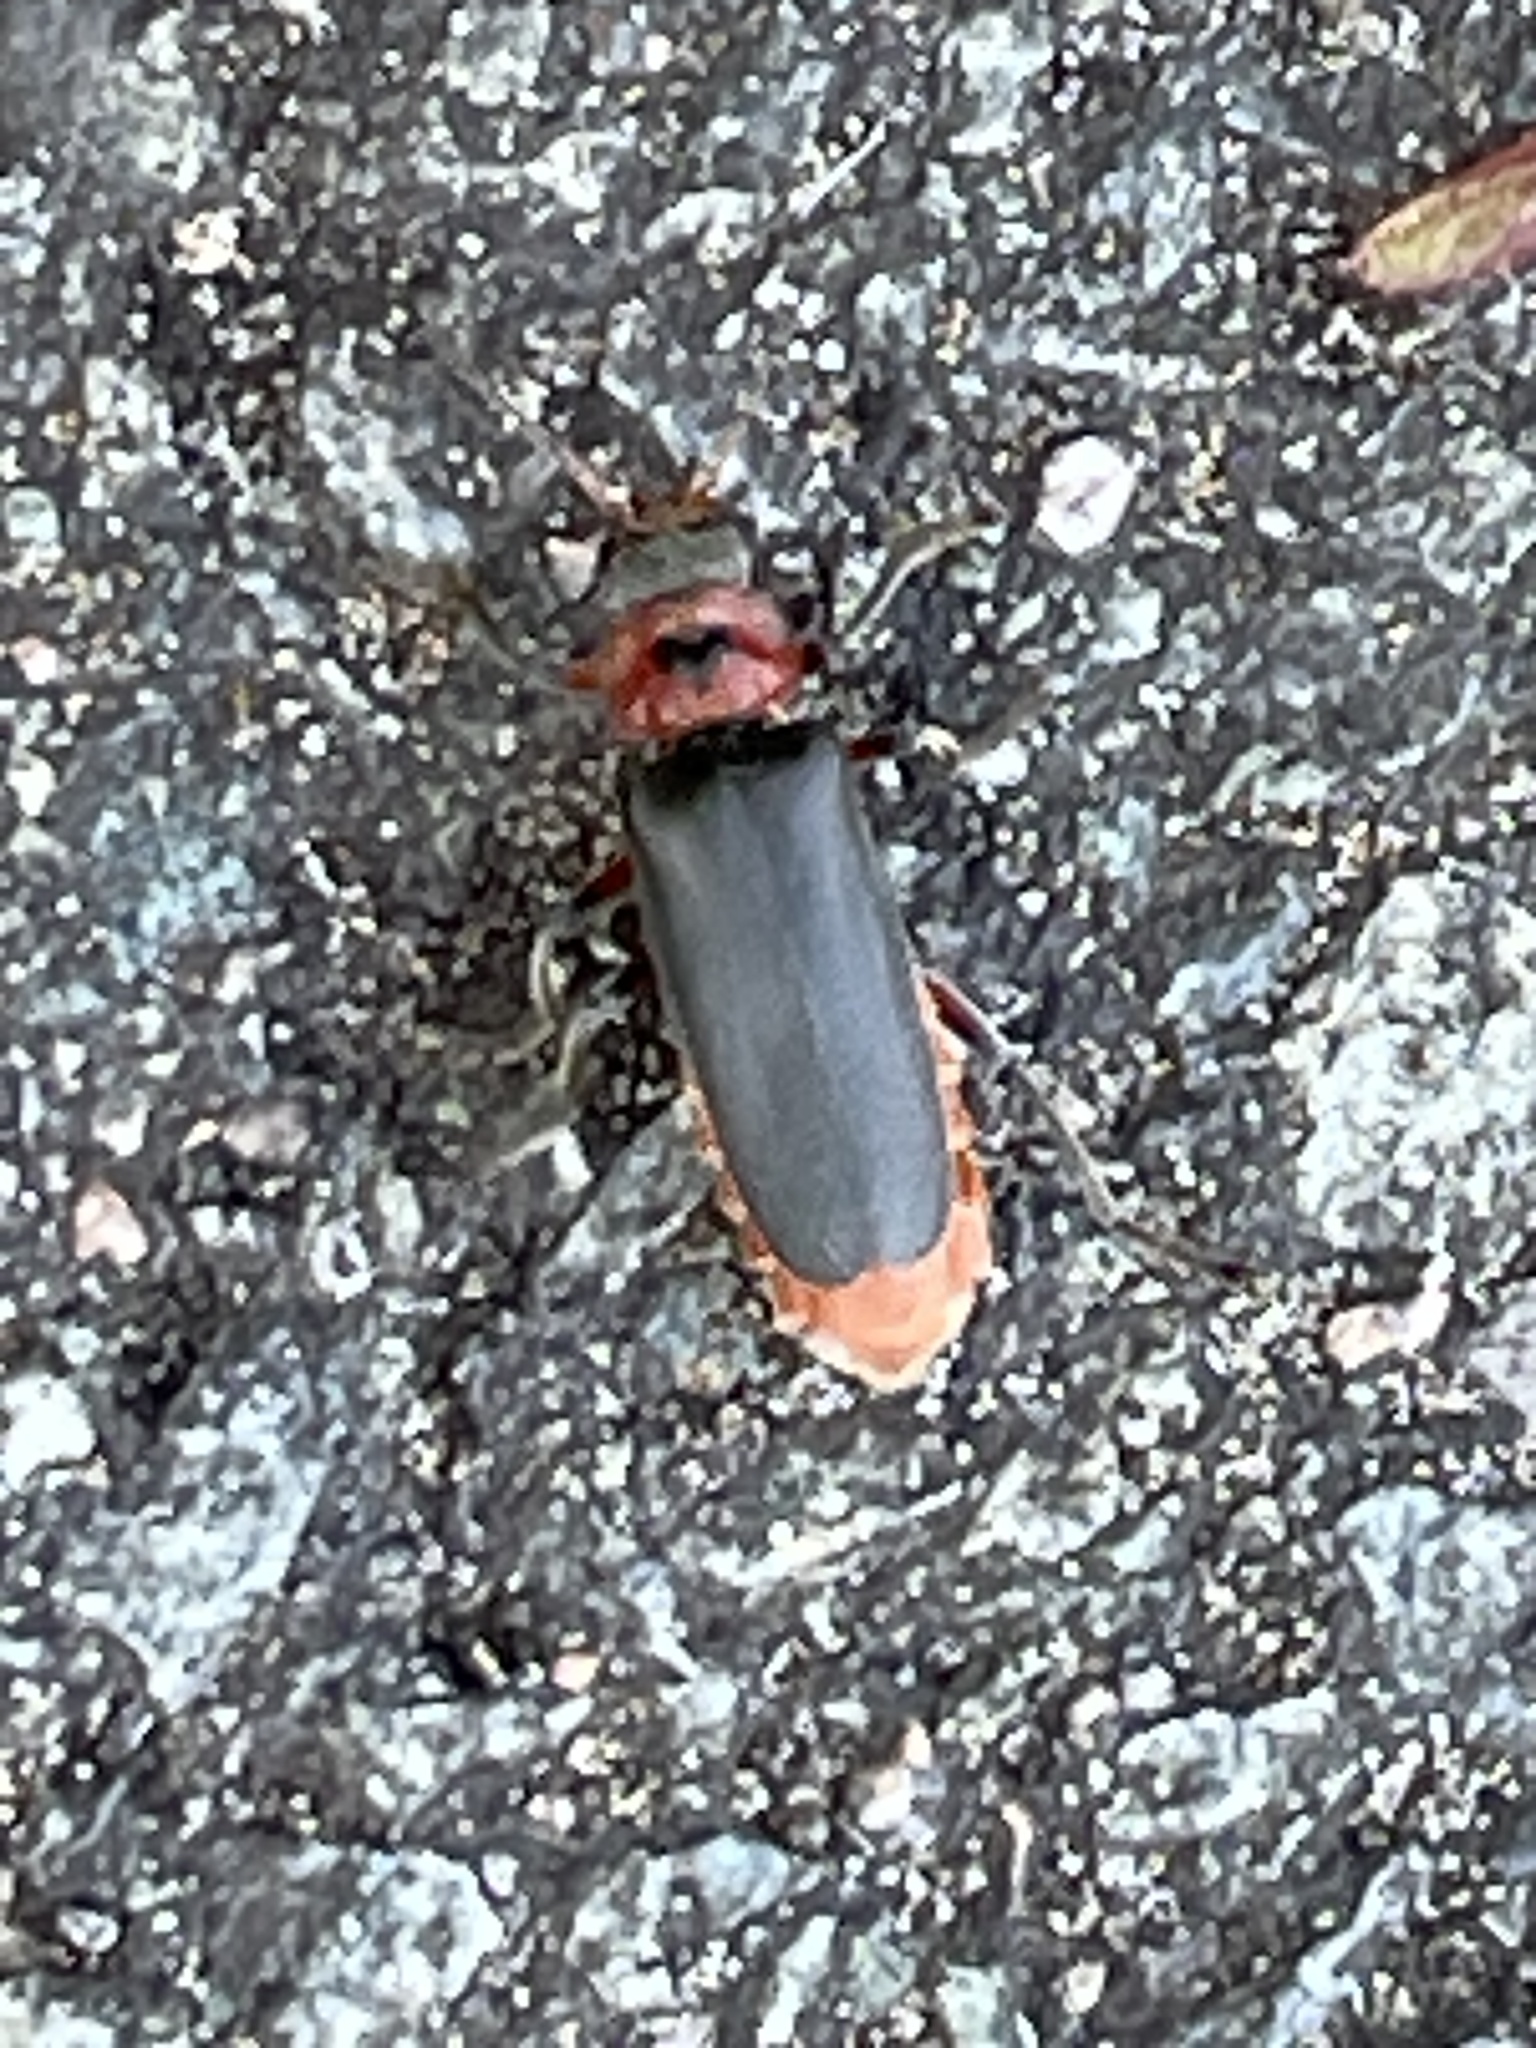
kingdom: Animalia
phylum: Arthropoda
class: Insecta
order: Coleoptera
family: Cantharidae
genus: Cantharis
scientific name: Cantharis rustica
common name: Soldier beetle
